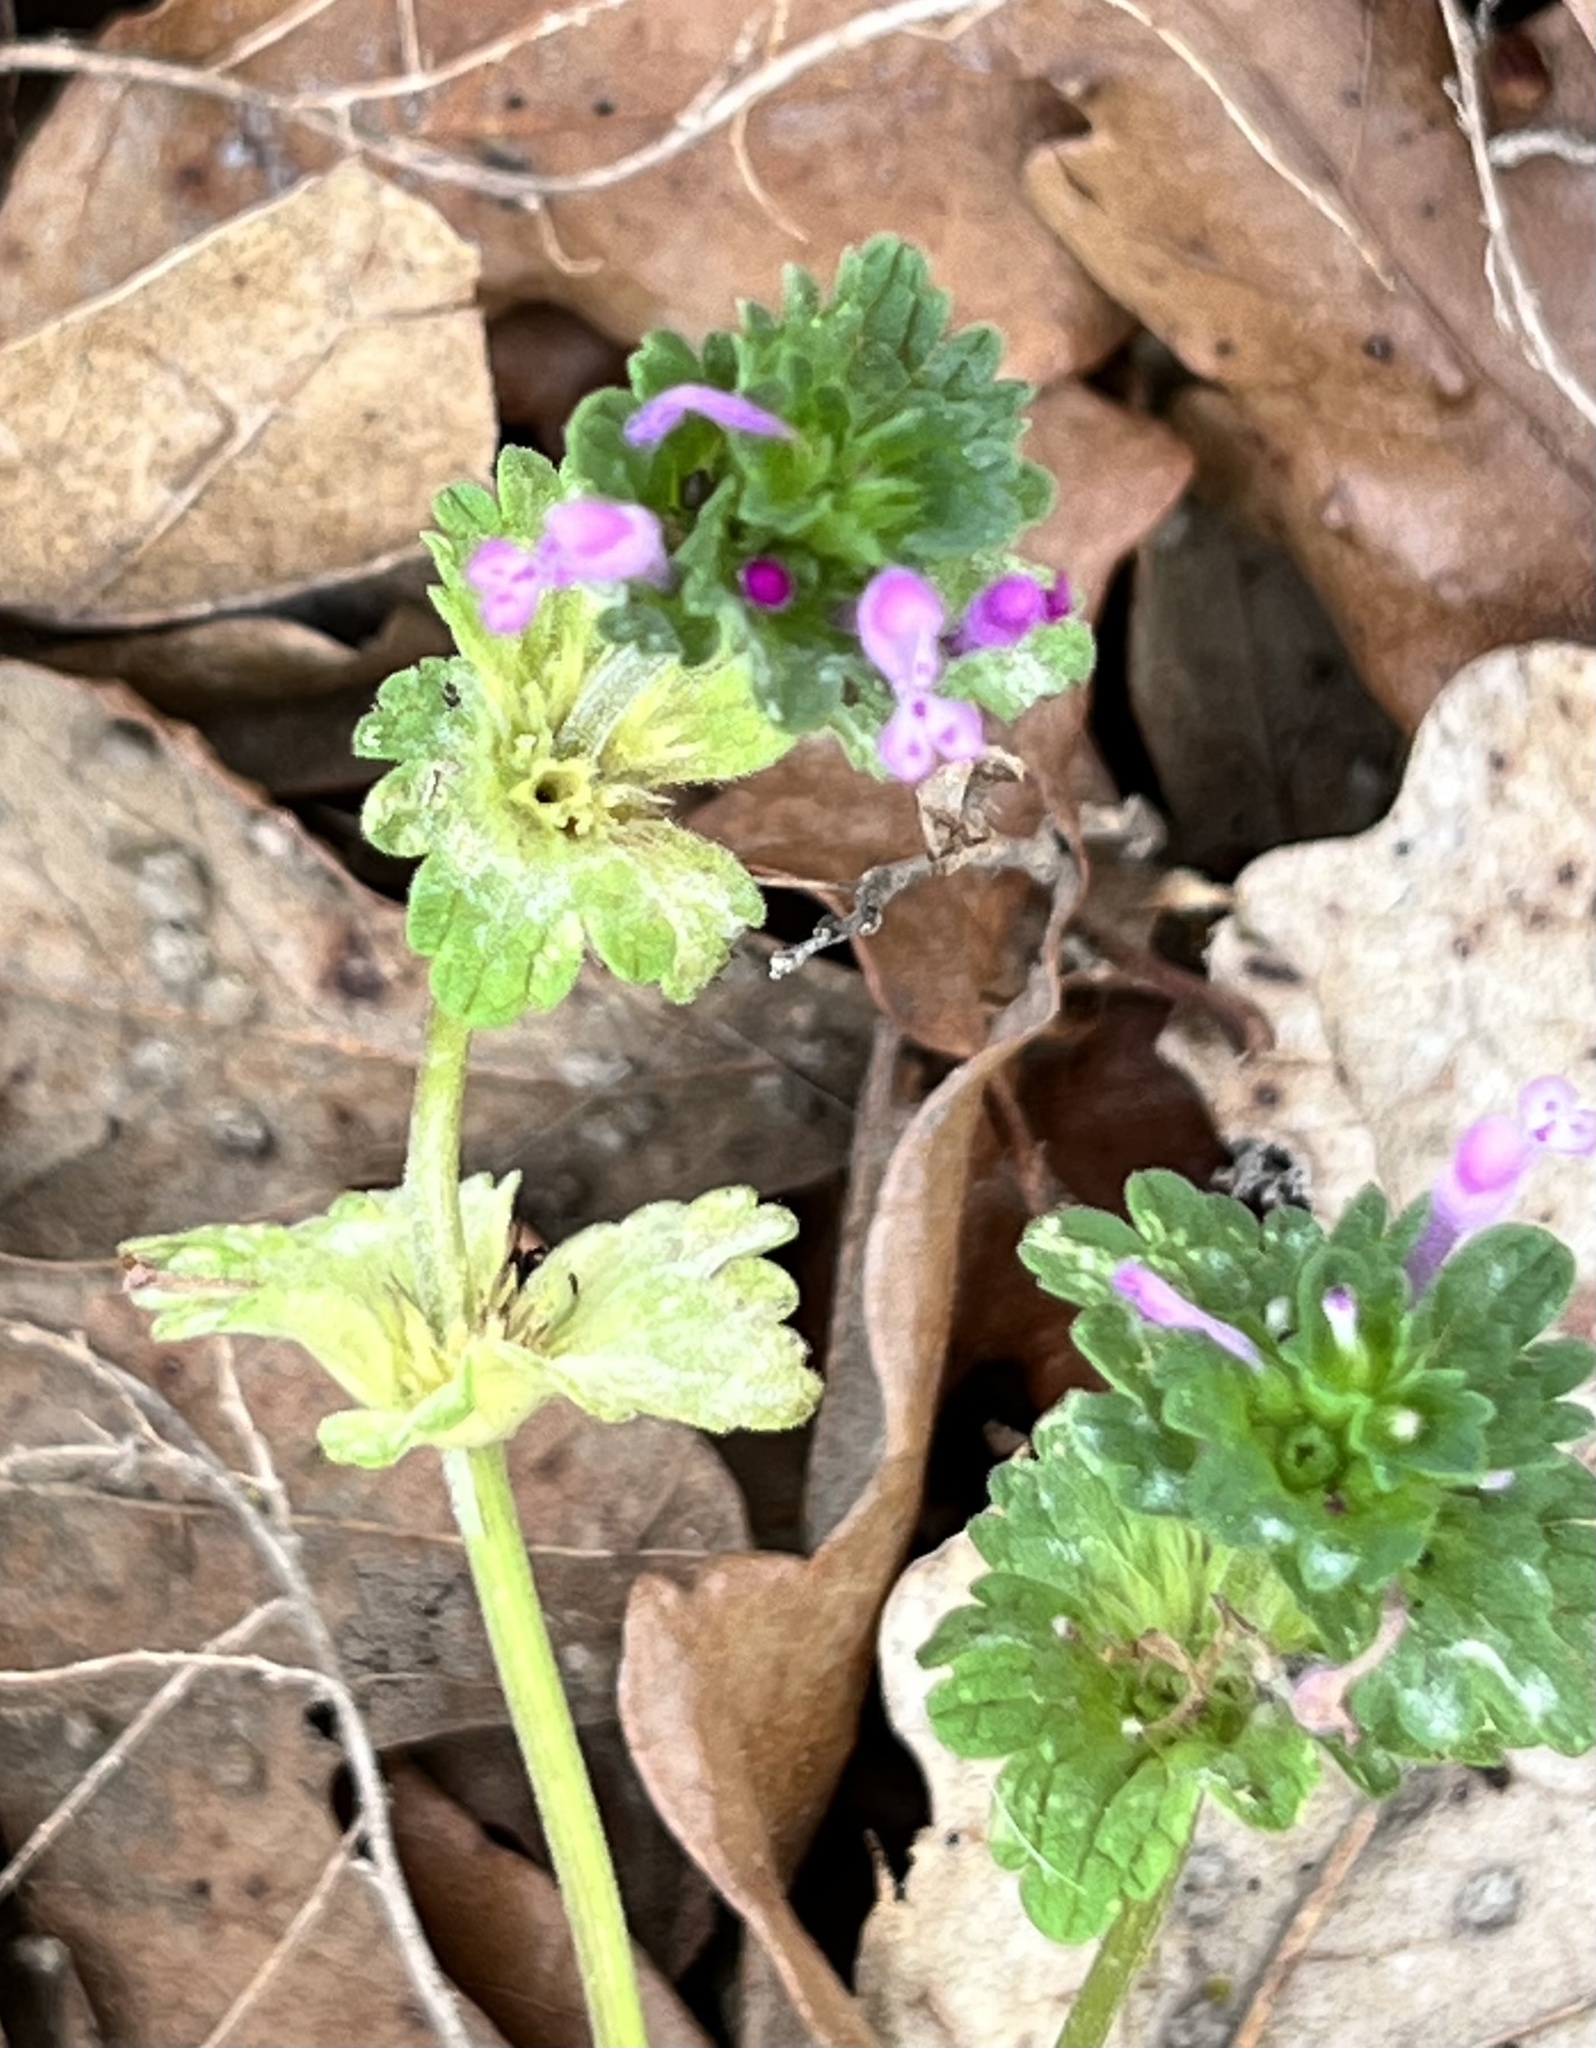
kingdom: Plantae
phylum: Tracheophyta
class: Magnoliopsida
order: Lamiales
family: Lamiaceae
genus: Lamium
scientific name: Lamium amplexicaule
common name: Henbit dead-nettle
